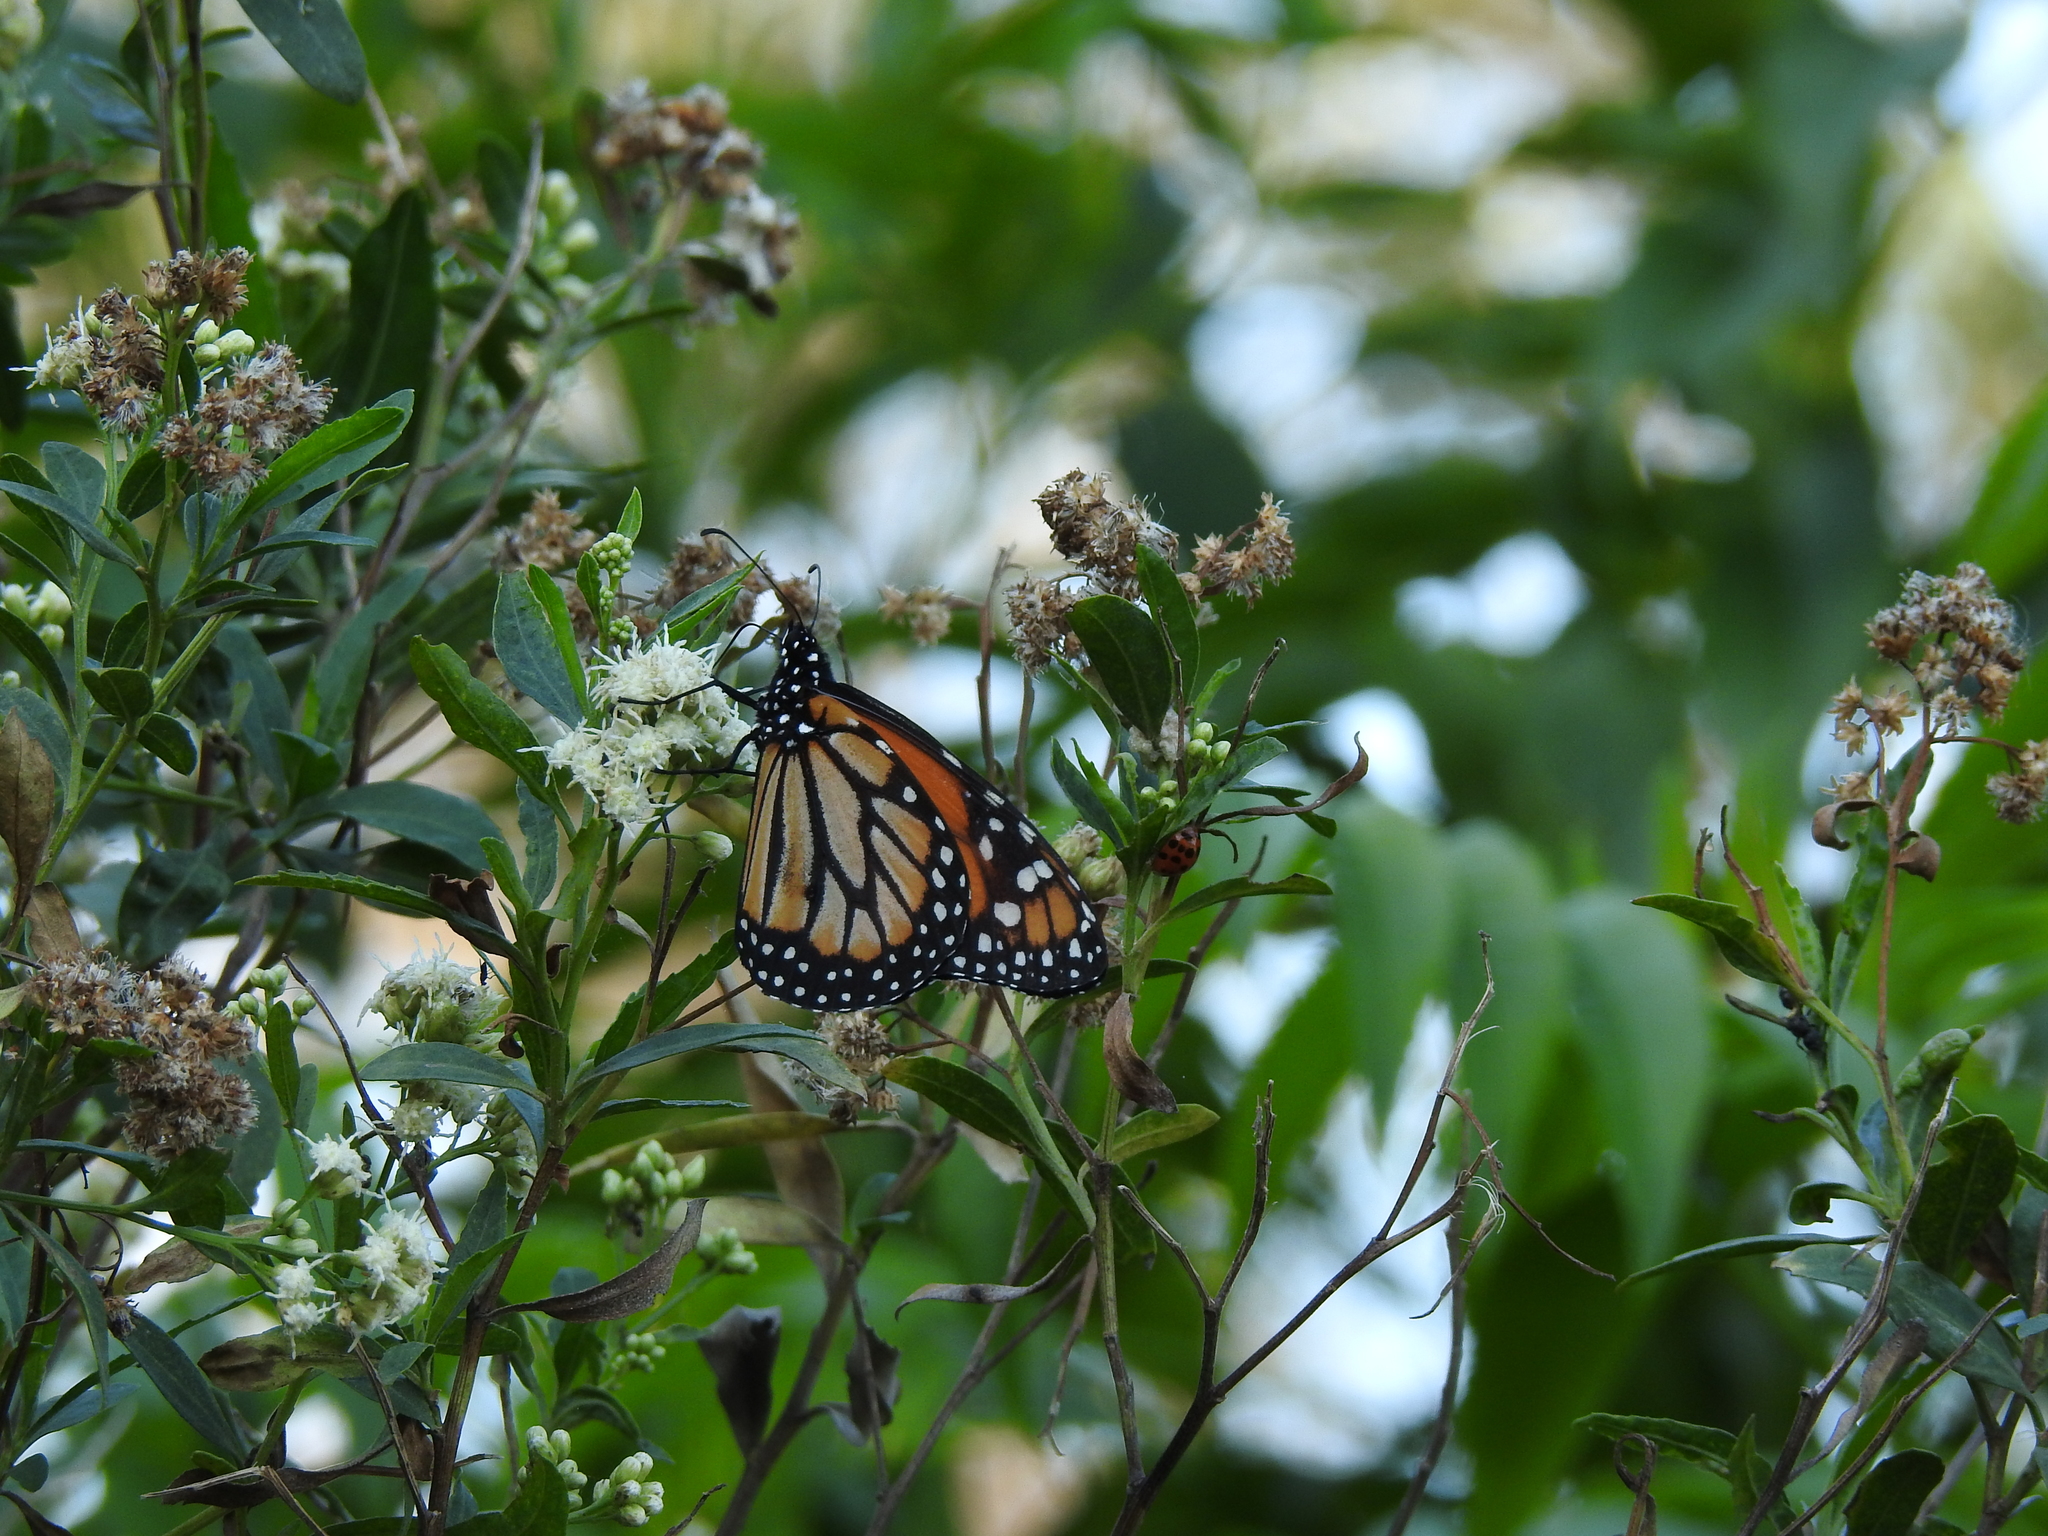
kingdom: Animalia
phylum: Arthropoda
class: Insecta
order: Lepidoptera
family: Nymphalidae
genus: Danaus
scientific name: Danaus erippus
